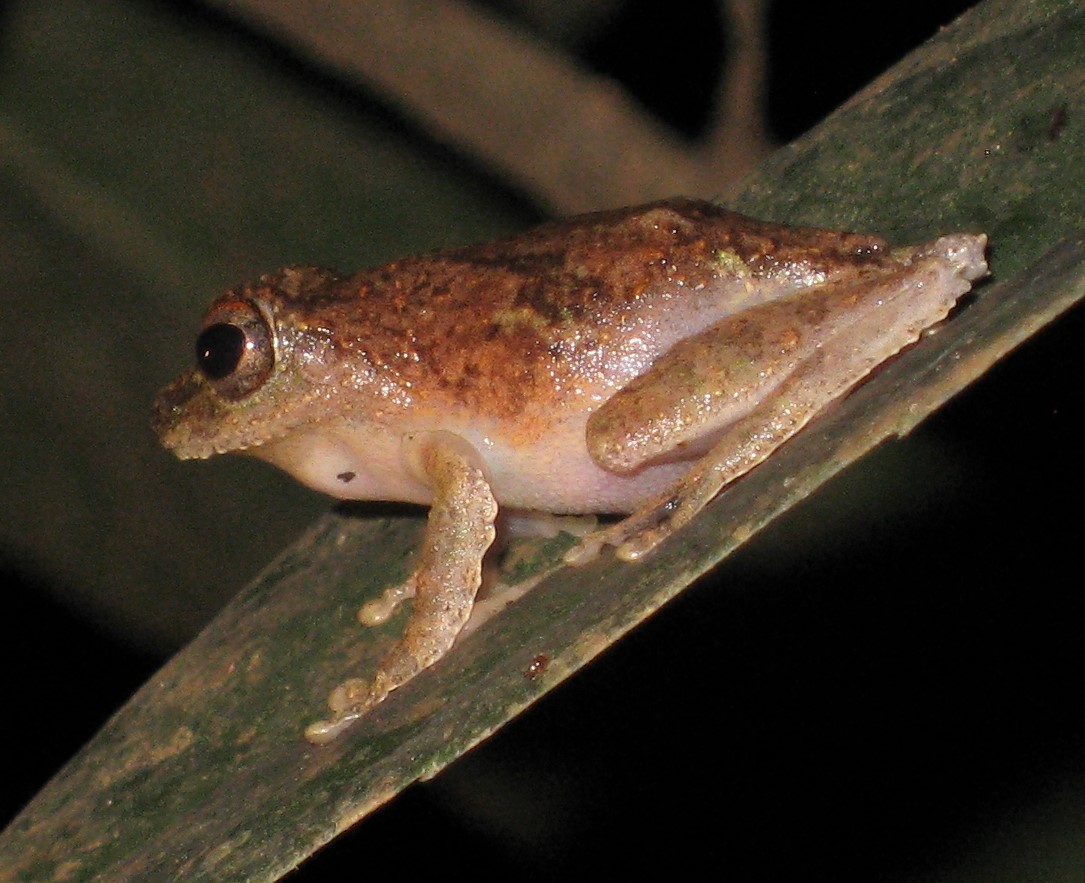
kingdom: Animalia
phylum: Chordata
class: Amphibia
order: Anura
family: Rhacophoridae
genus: Kurixalus
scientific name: Kurixalus chaseni
